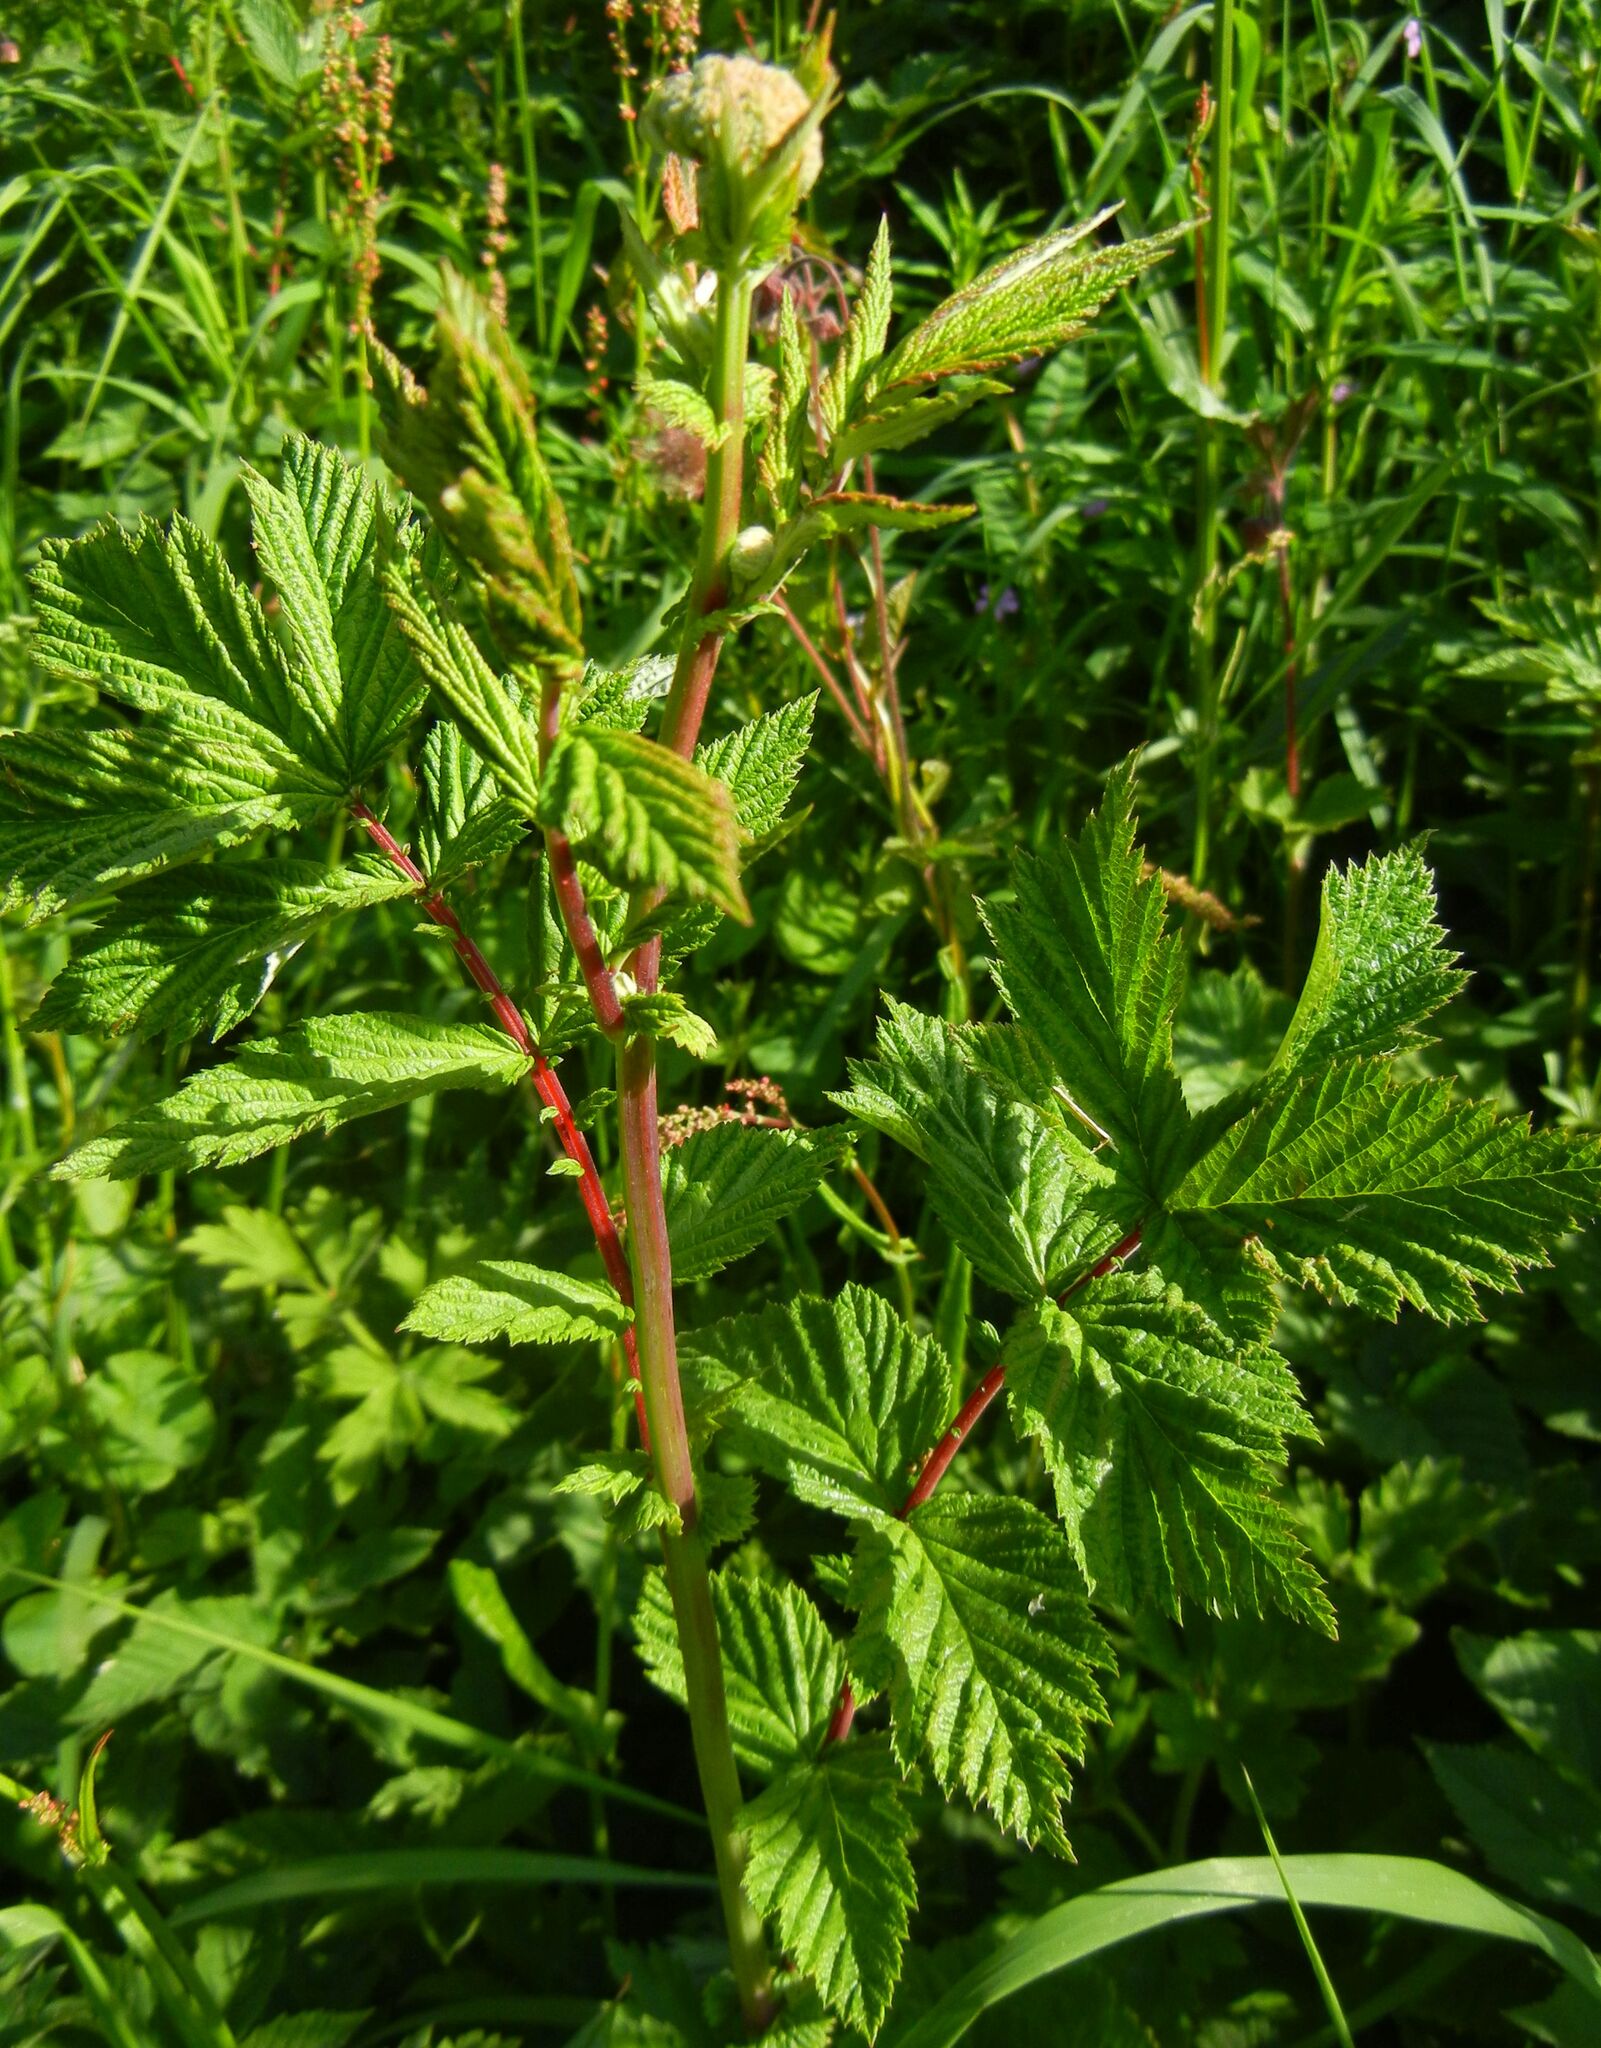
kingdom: Plantae
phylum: Tracheophyta
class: Magnoliopsida
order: Rosales
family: Rosaceae
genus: Filipendula
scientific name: Filipendula ulmaria
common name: Meadowsweet
